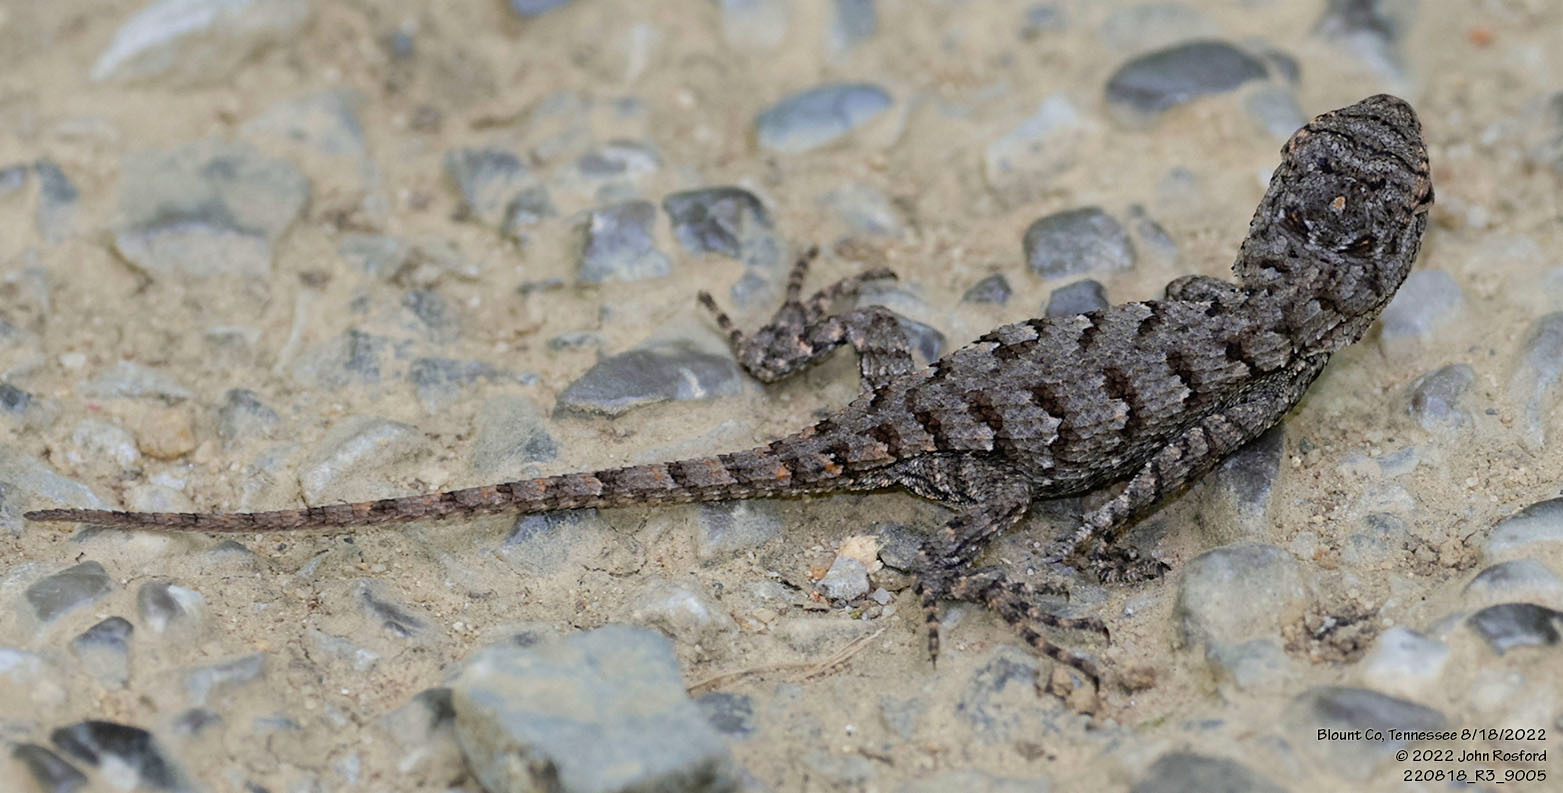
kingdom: Animalia
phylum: Chordata
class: Squamata
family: Phrynosomatidae
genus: Sceloporus
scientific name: Sceloporus undulatus
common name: Eastern fence lizard
